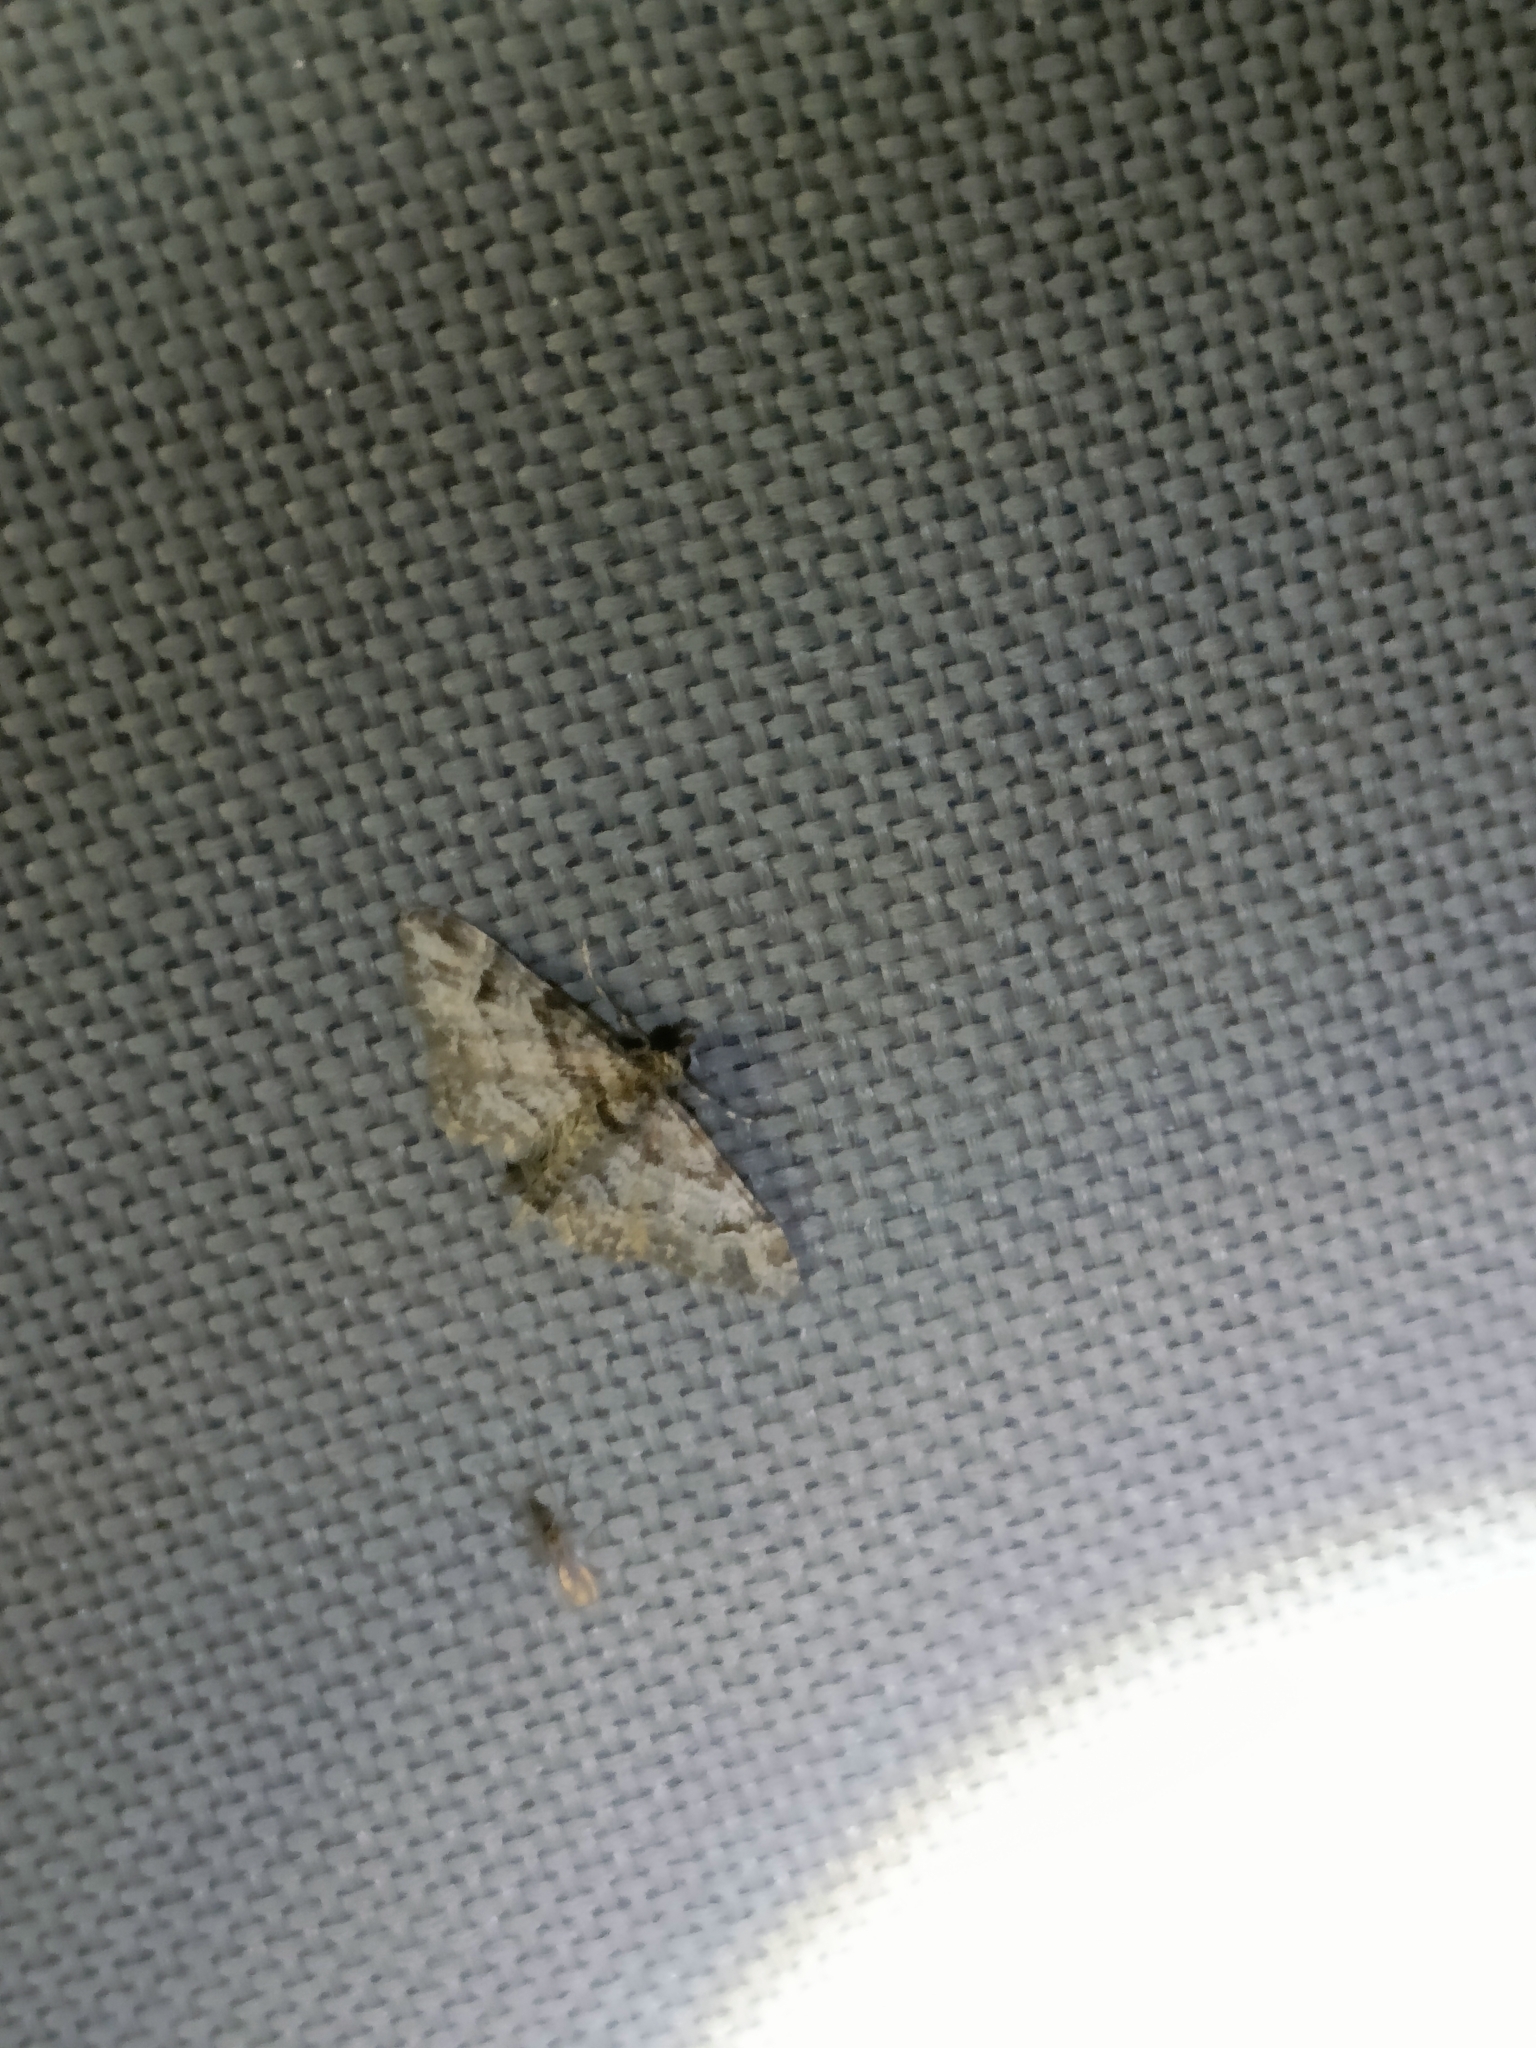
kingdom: Animalia
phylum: Arthropoda
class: Insecta
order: Lepidoptera
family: Geometridae
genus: Gymnoscelis
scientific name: Gymnoscelis rufifasciata
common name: Double-striped pug
